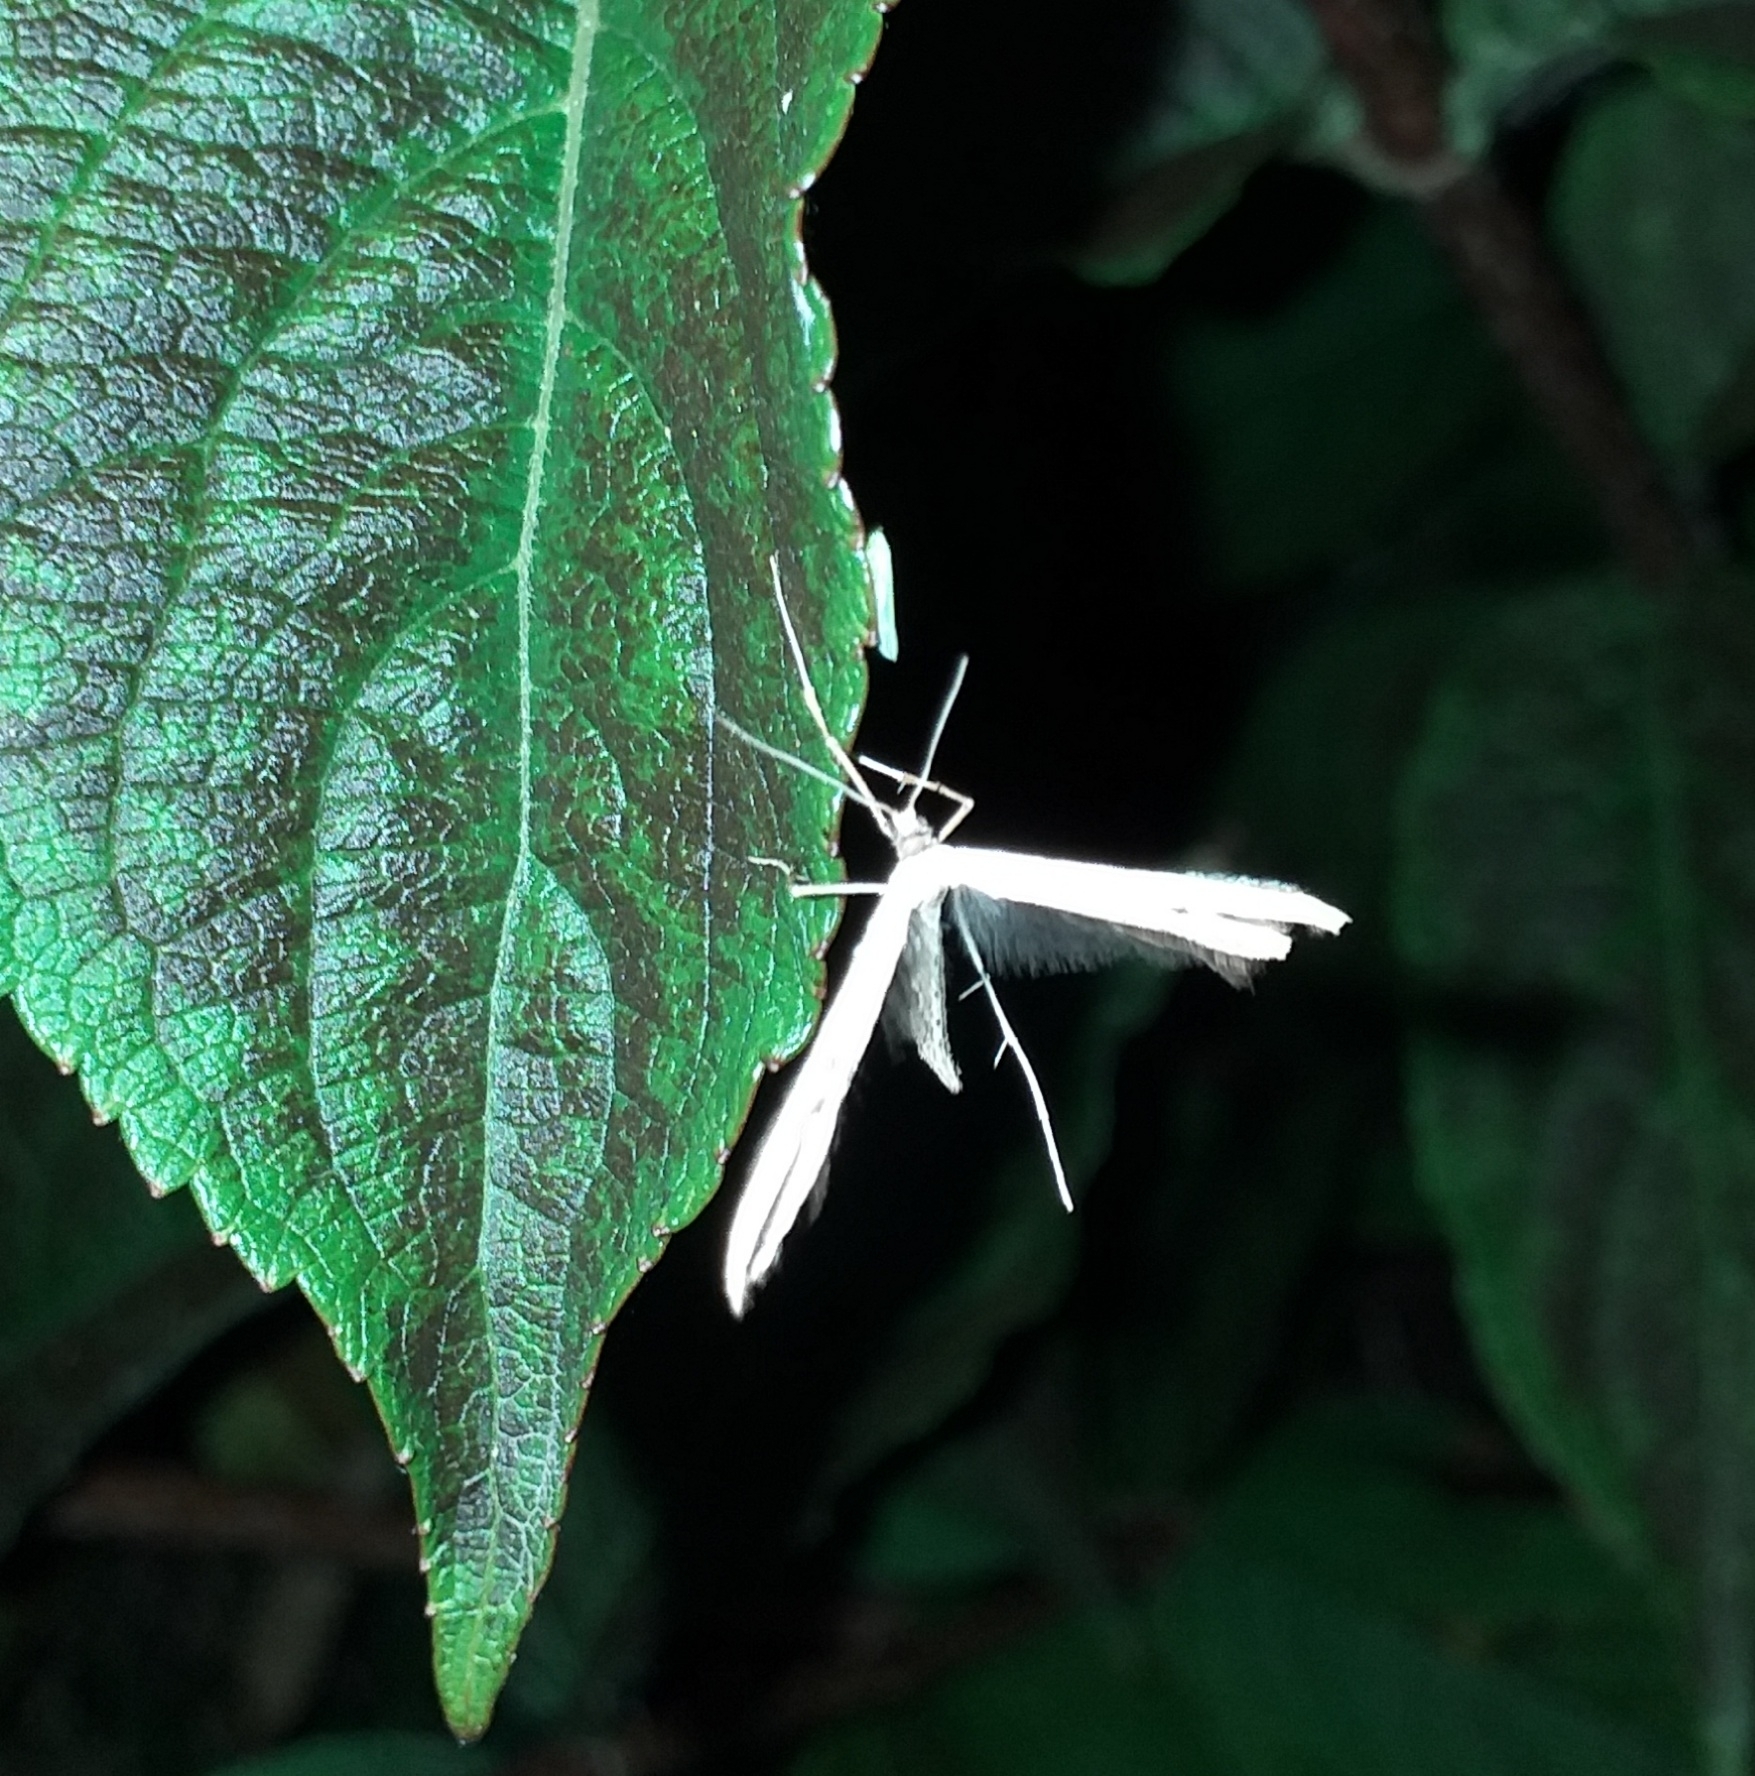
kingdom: Animalia
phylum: Arthropoda
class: Insecta
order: Lepidoptera
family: Pterophoridae
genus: Emmelina
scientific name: Emmelina monodactyla
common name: Common plume
